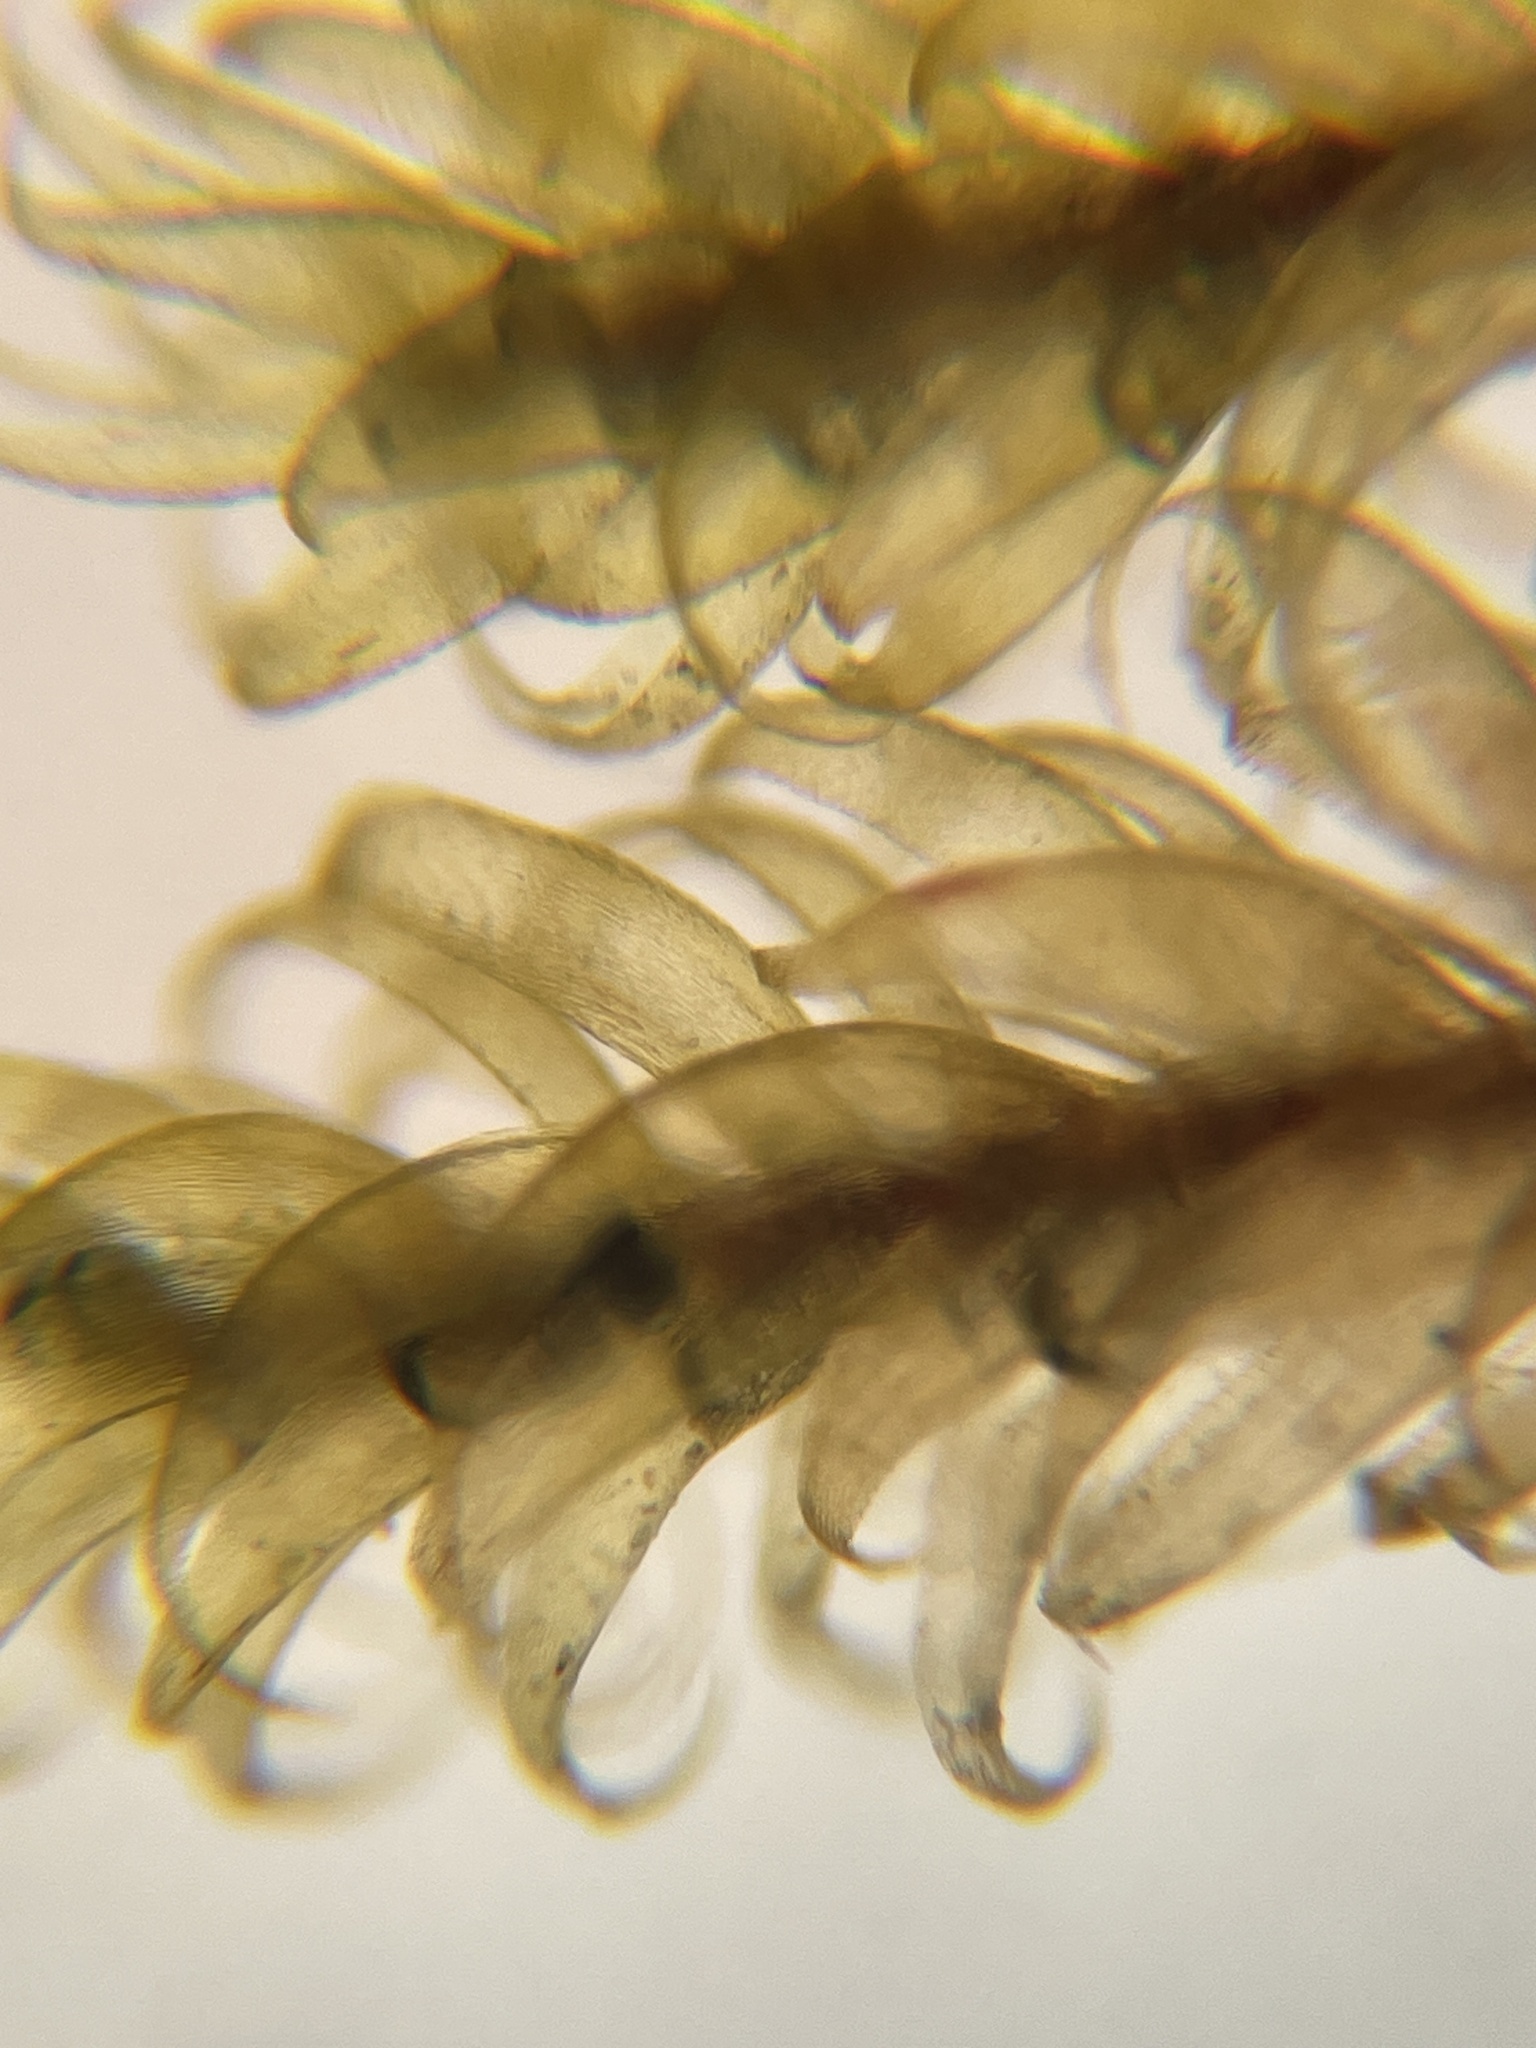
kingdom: Plantae
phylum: Bryophyta
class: Bryopsida
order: Hypnales
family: Callicladiaceae
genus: Callicladium
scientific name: Callicladium imponens
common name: Brocade moss
